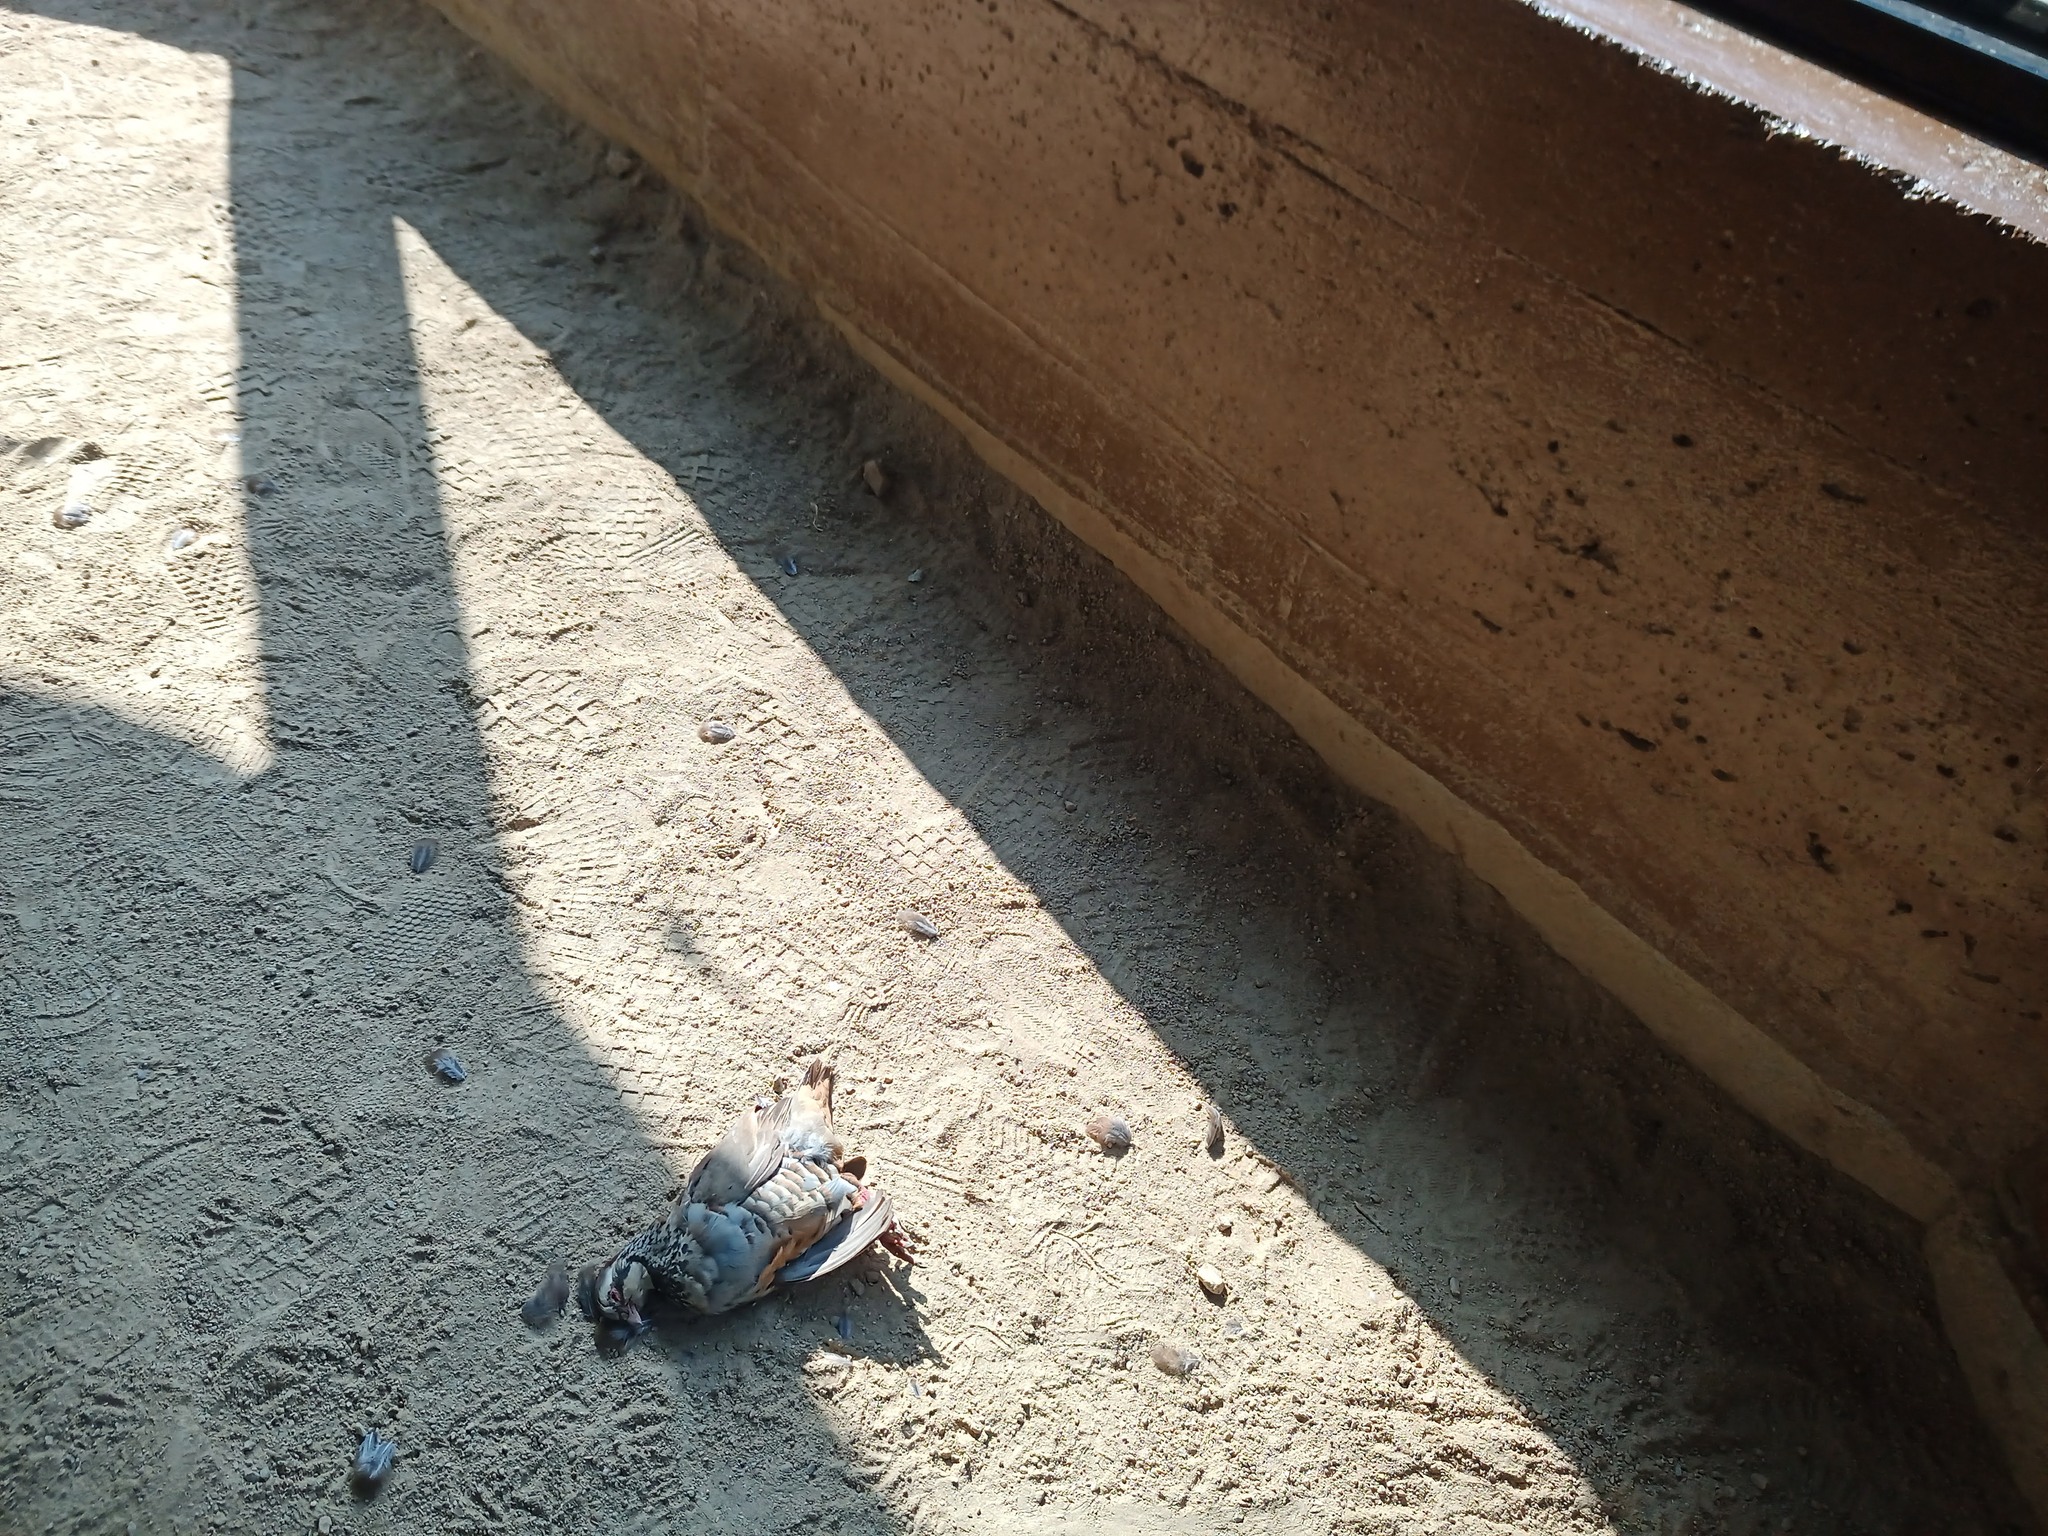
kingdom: Animalia
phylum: Chordata
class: Aves
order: Galliformes
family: Phasianidae
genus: Alectoris
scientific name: Alectoris rufa
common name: Red-legged partridge
